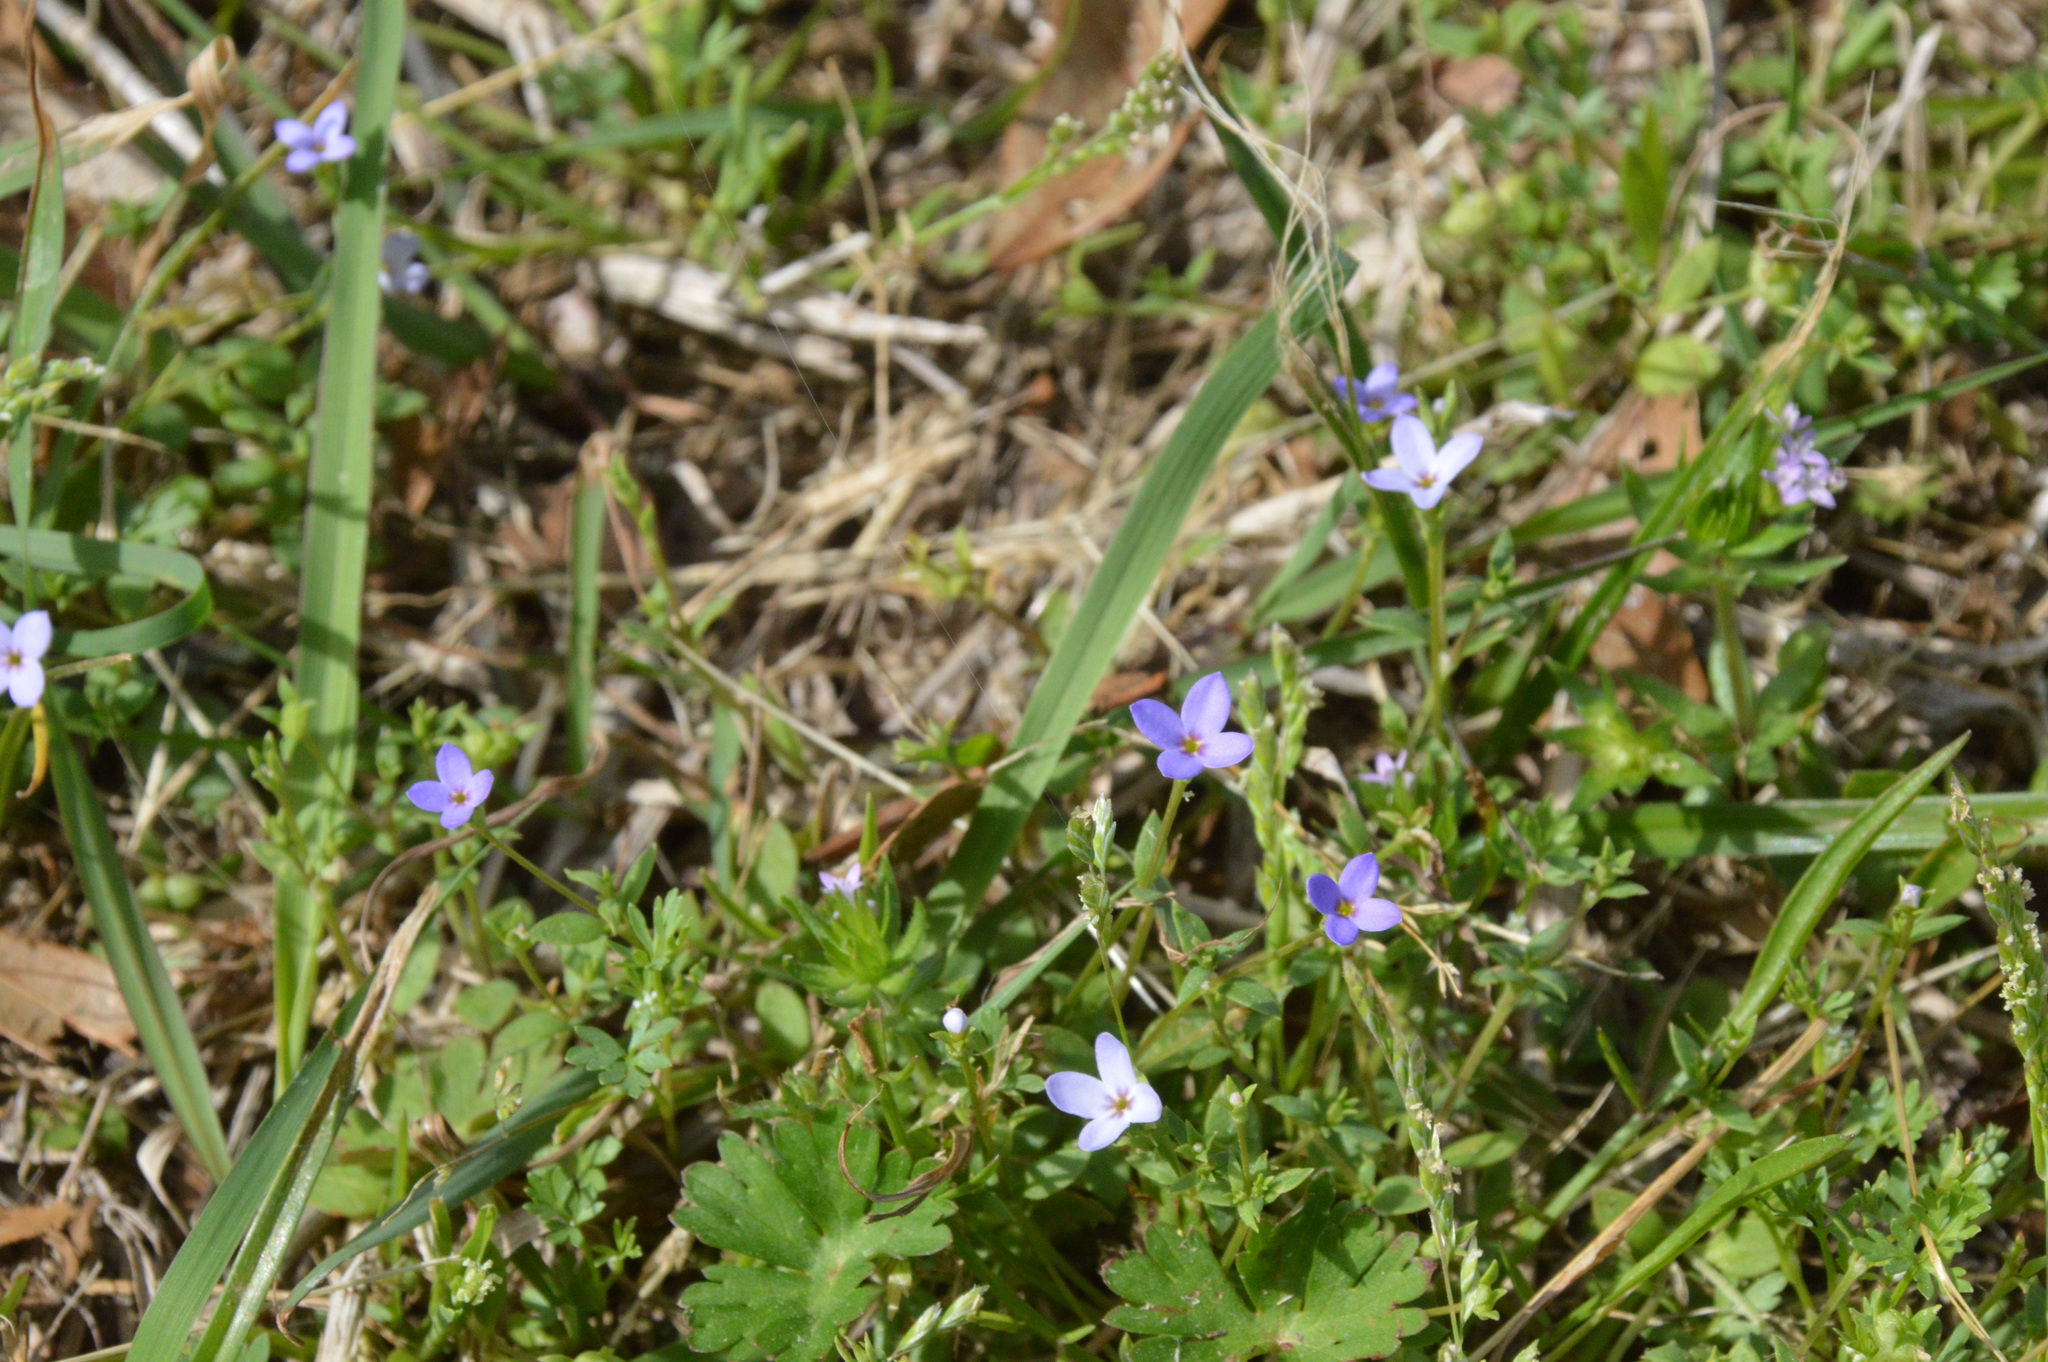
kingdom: Plantae
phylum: Tracheophyta
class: Magnoliopsida
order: Gentianales
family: Rubiaceae
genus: Houstonia
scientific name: Houstonia pusilla
